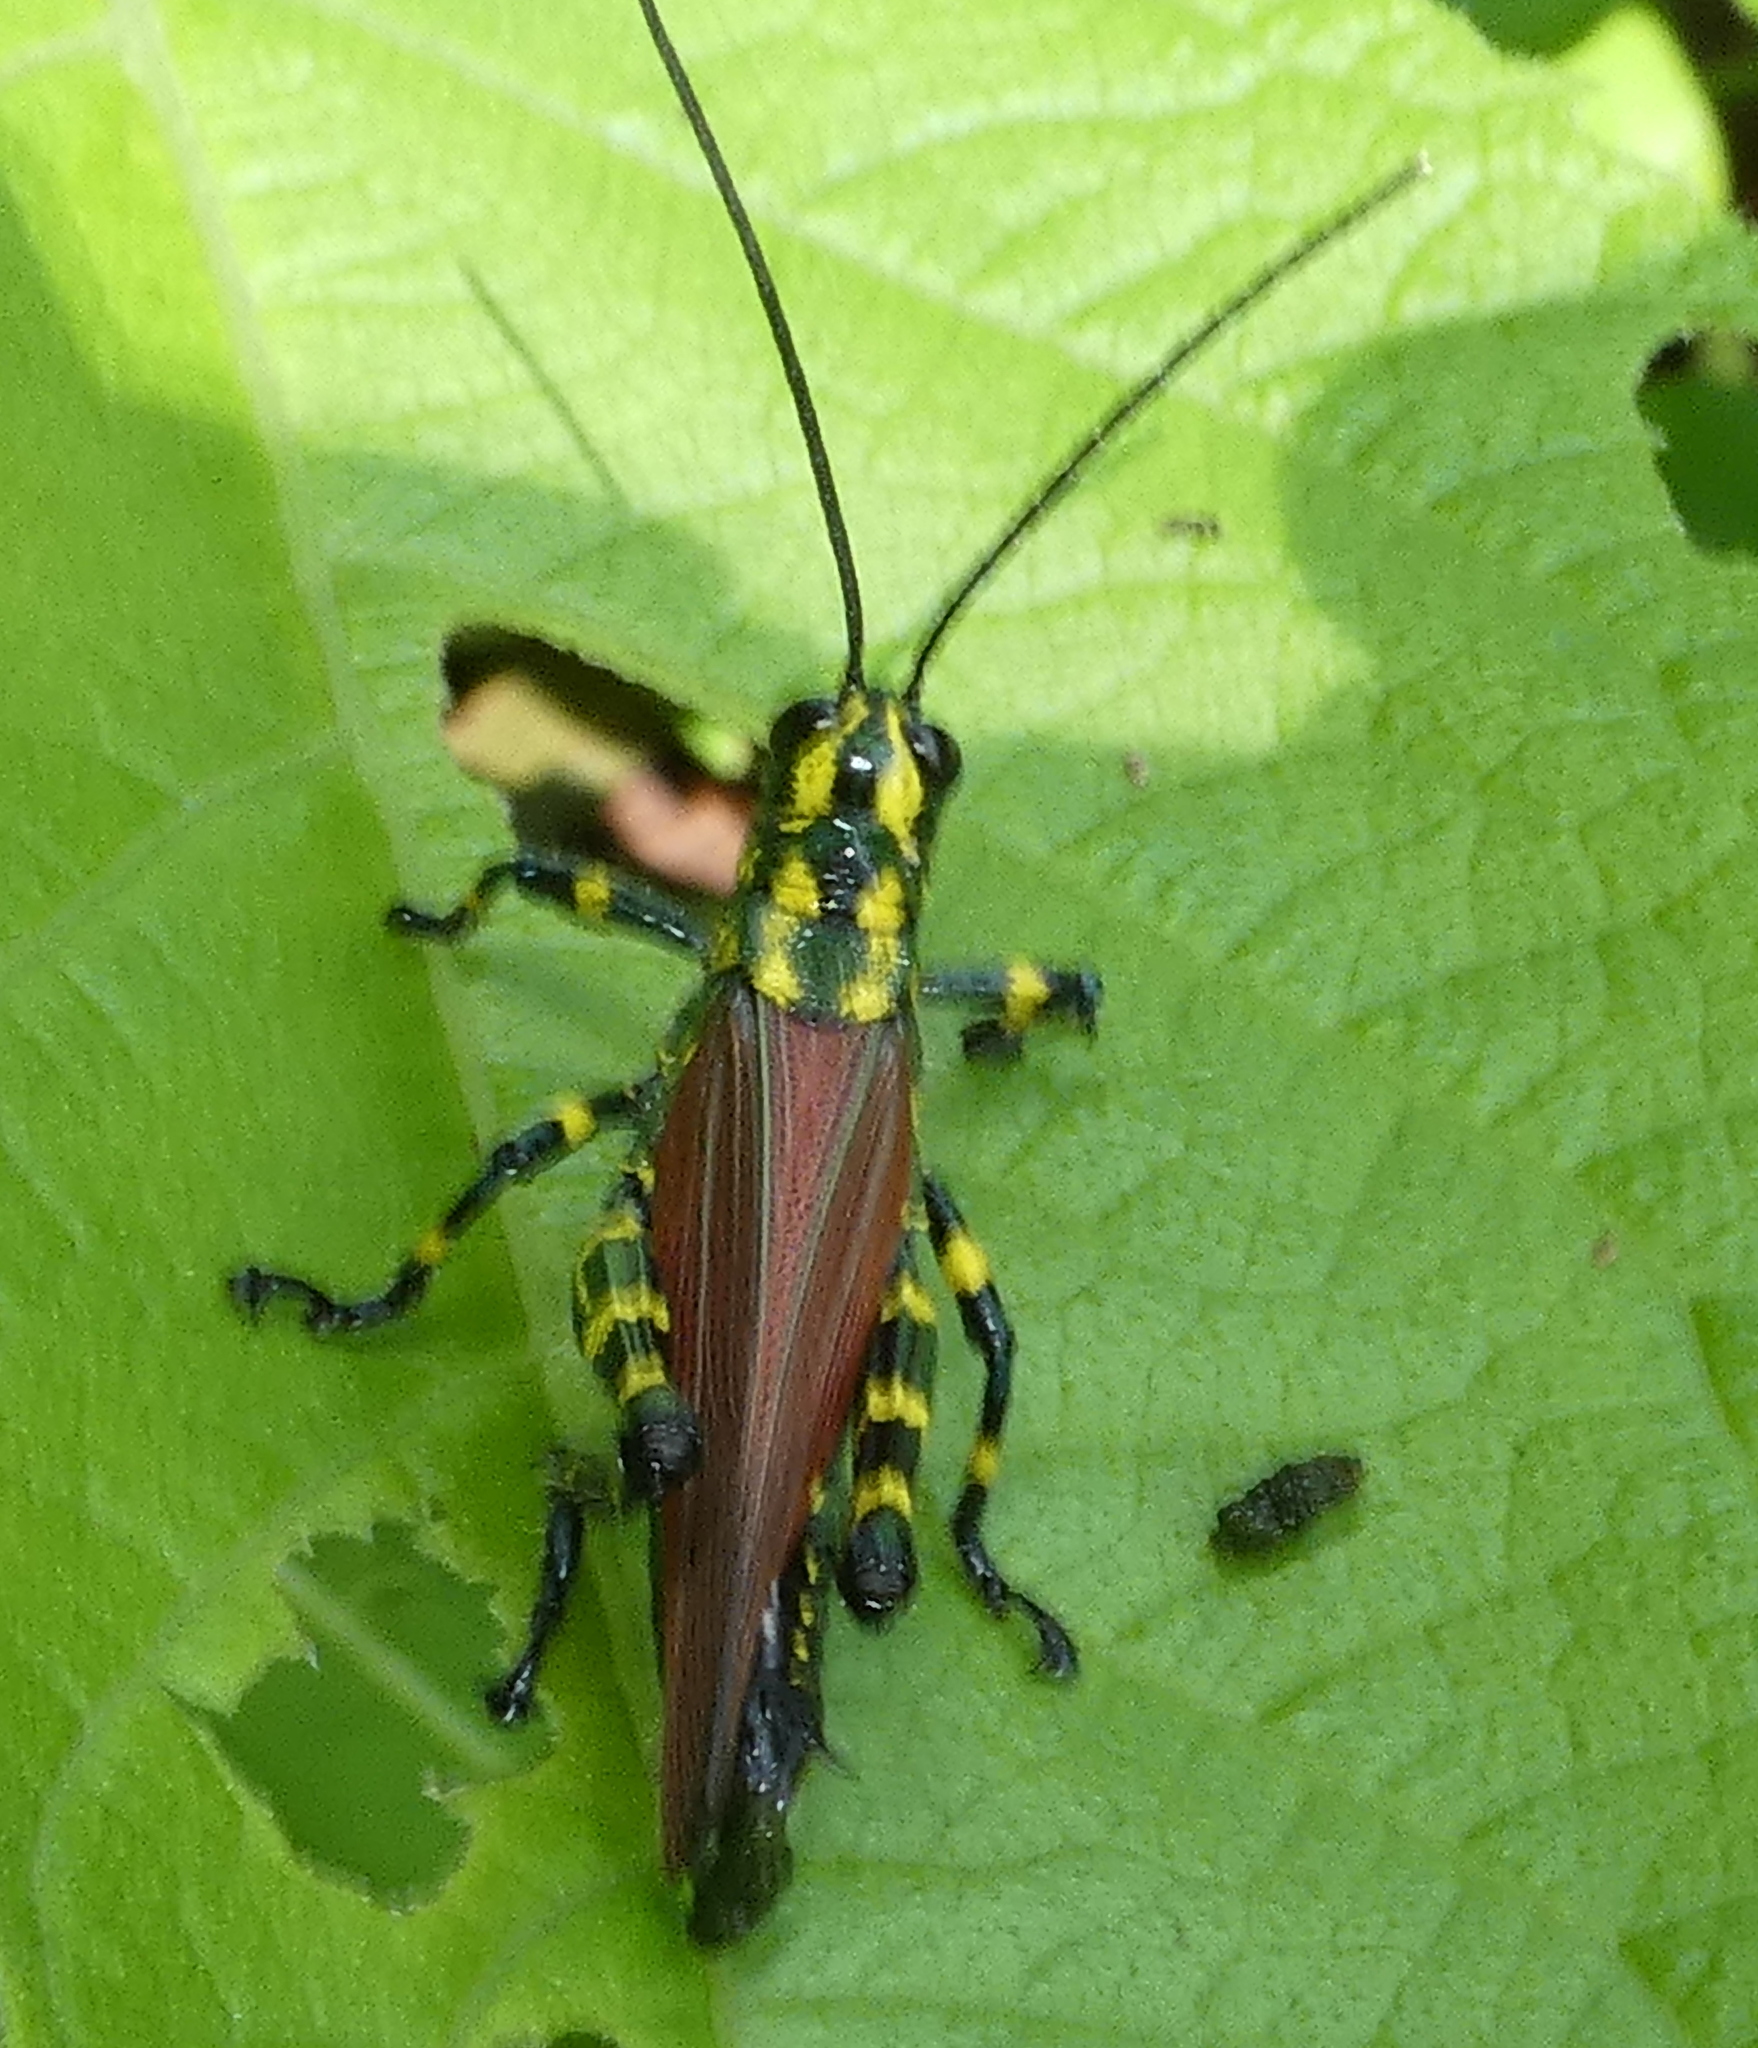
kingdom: Animalia
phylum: Arthropoda
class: Insecta
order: Orthoptera
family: Romaleidae
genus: Chromacris
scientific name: Chromacris speciosa
